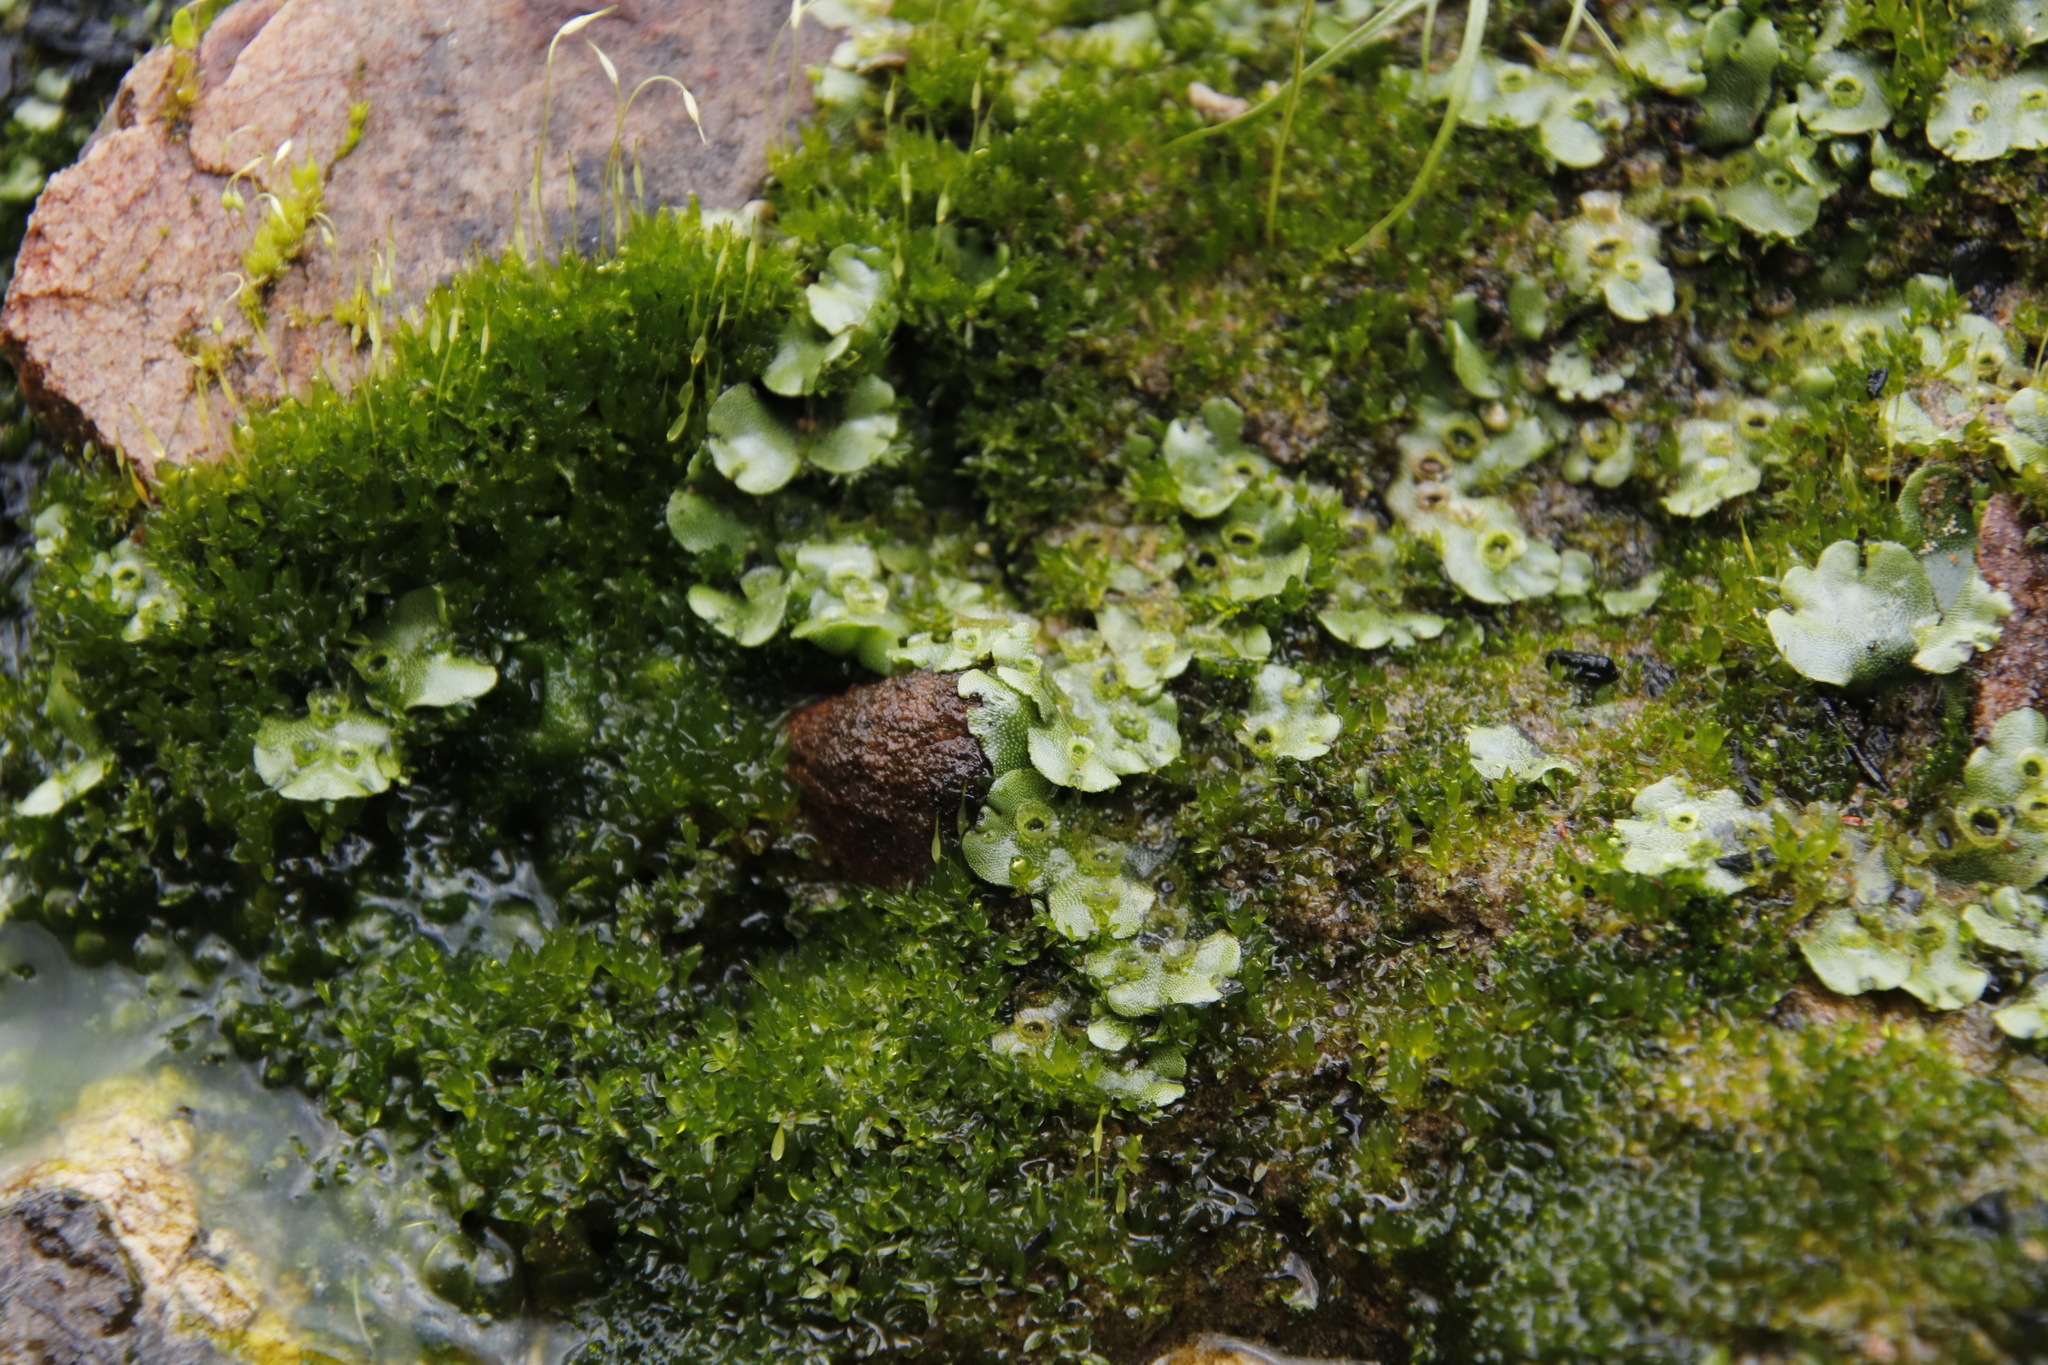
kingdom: Plantae
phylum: Bryophyta
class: Bryopsida
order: Funariales
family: Funariaceae
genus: Funaria
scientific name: Funaria hygrometrica
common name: Common cord moss
